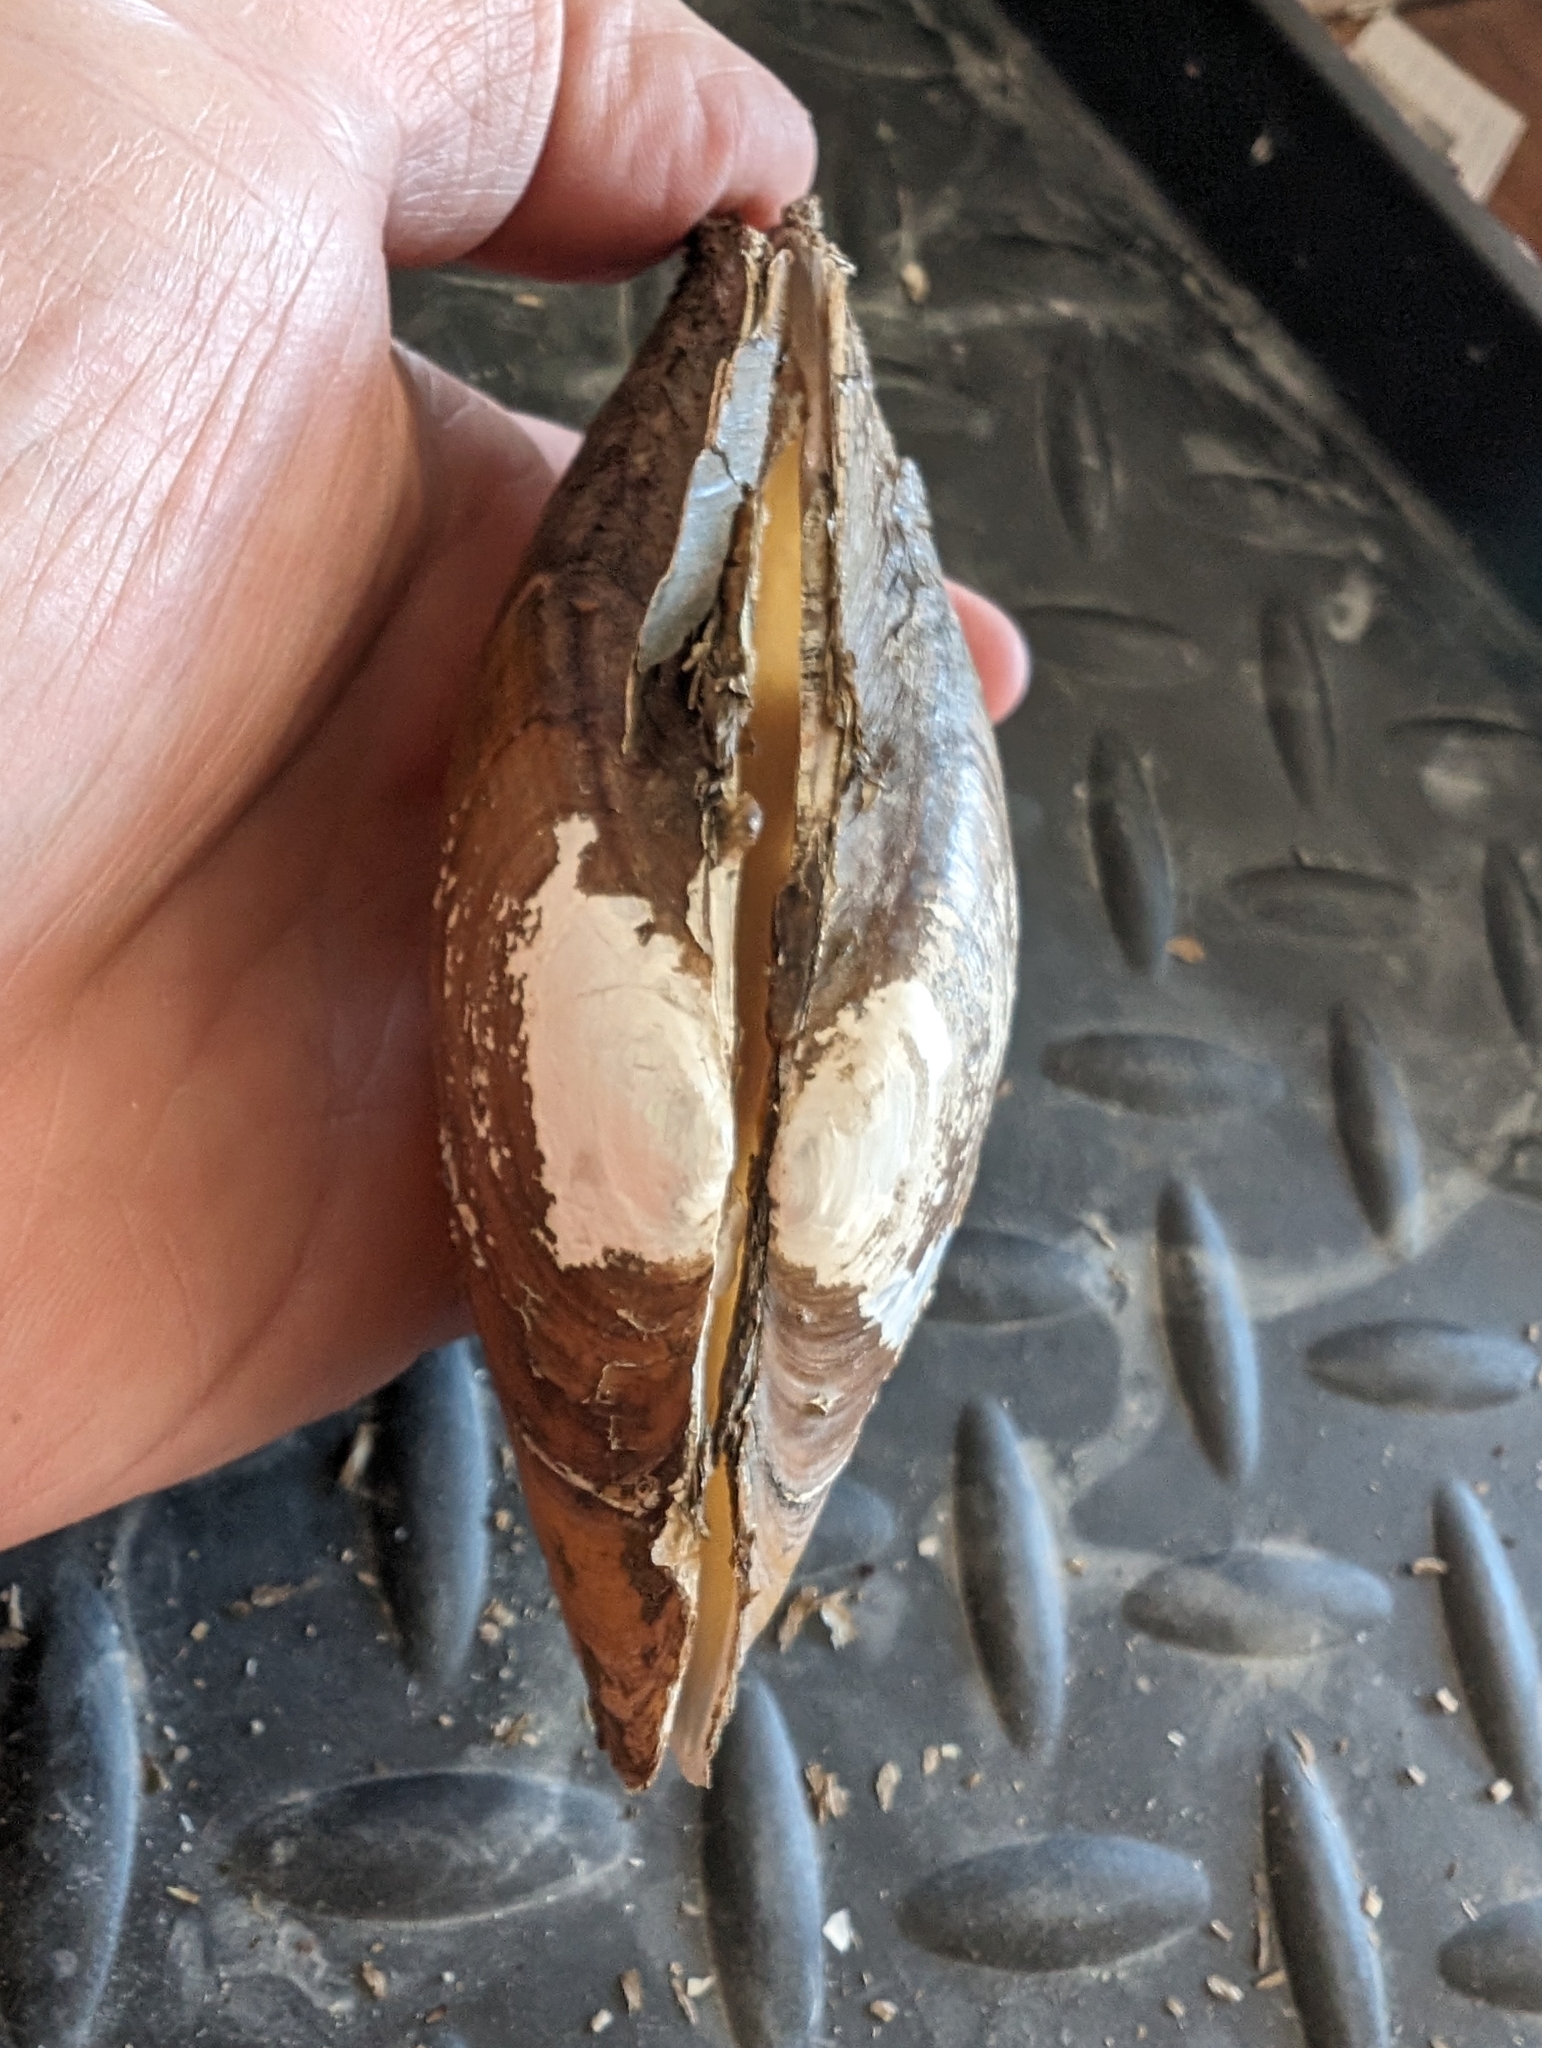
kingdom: Animalia
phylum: Mollusca
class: Bivalvia
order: Unionida
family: Unionidae
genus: Potamilus
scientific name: Potamilus fragilis
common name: Fragile papershell
